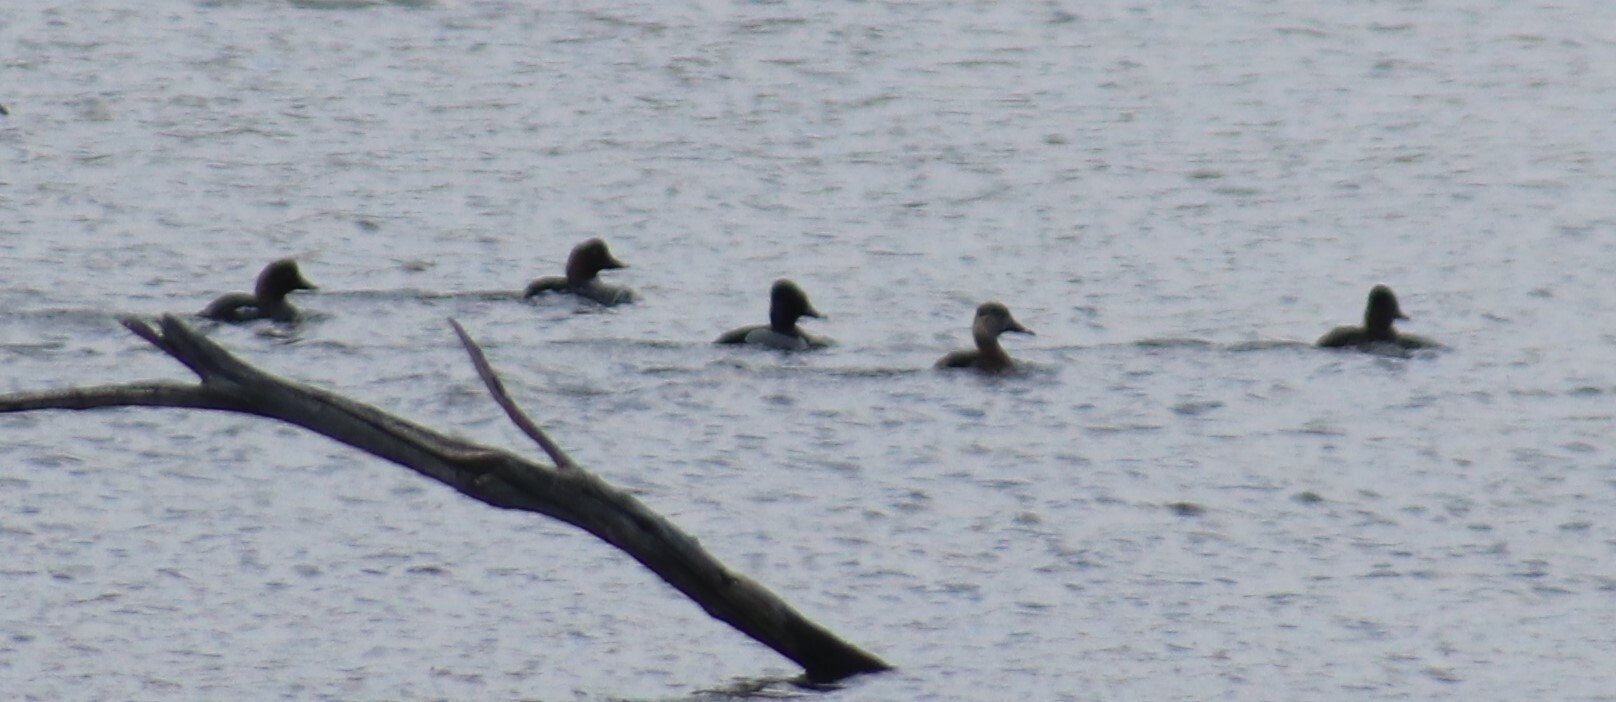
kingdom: Animalia
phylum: Chordata
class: Aves
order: Anseriformes
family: Anatidae
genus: Aythya
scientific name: Aythya collaris
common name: Ring-necked duck
